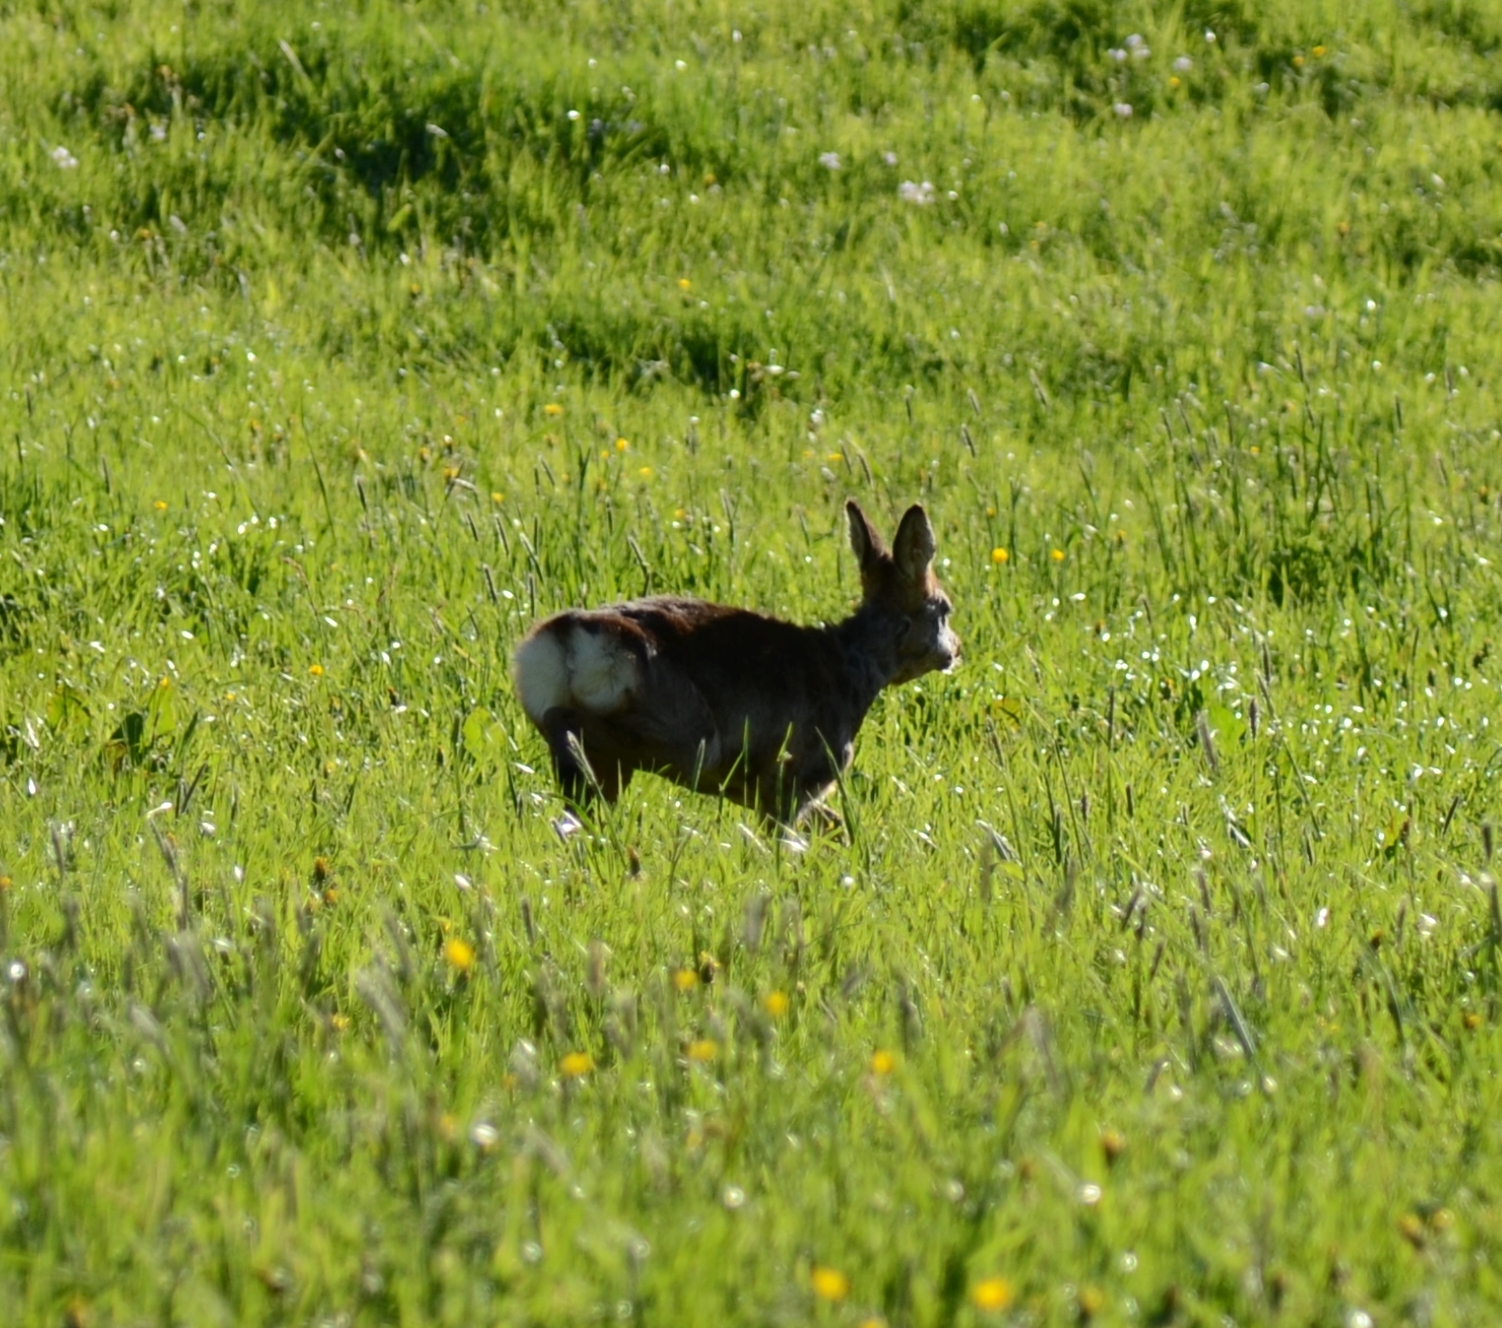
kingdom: Animalia
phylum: Chordata
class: Mammalia
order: Artiodactyla
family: Cervidae
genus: Capreolus
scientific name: Capreolus capreolus
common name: Western roe deer
